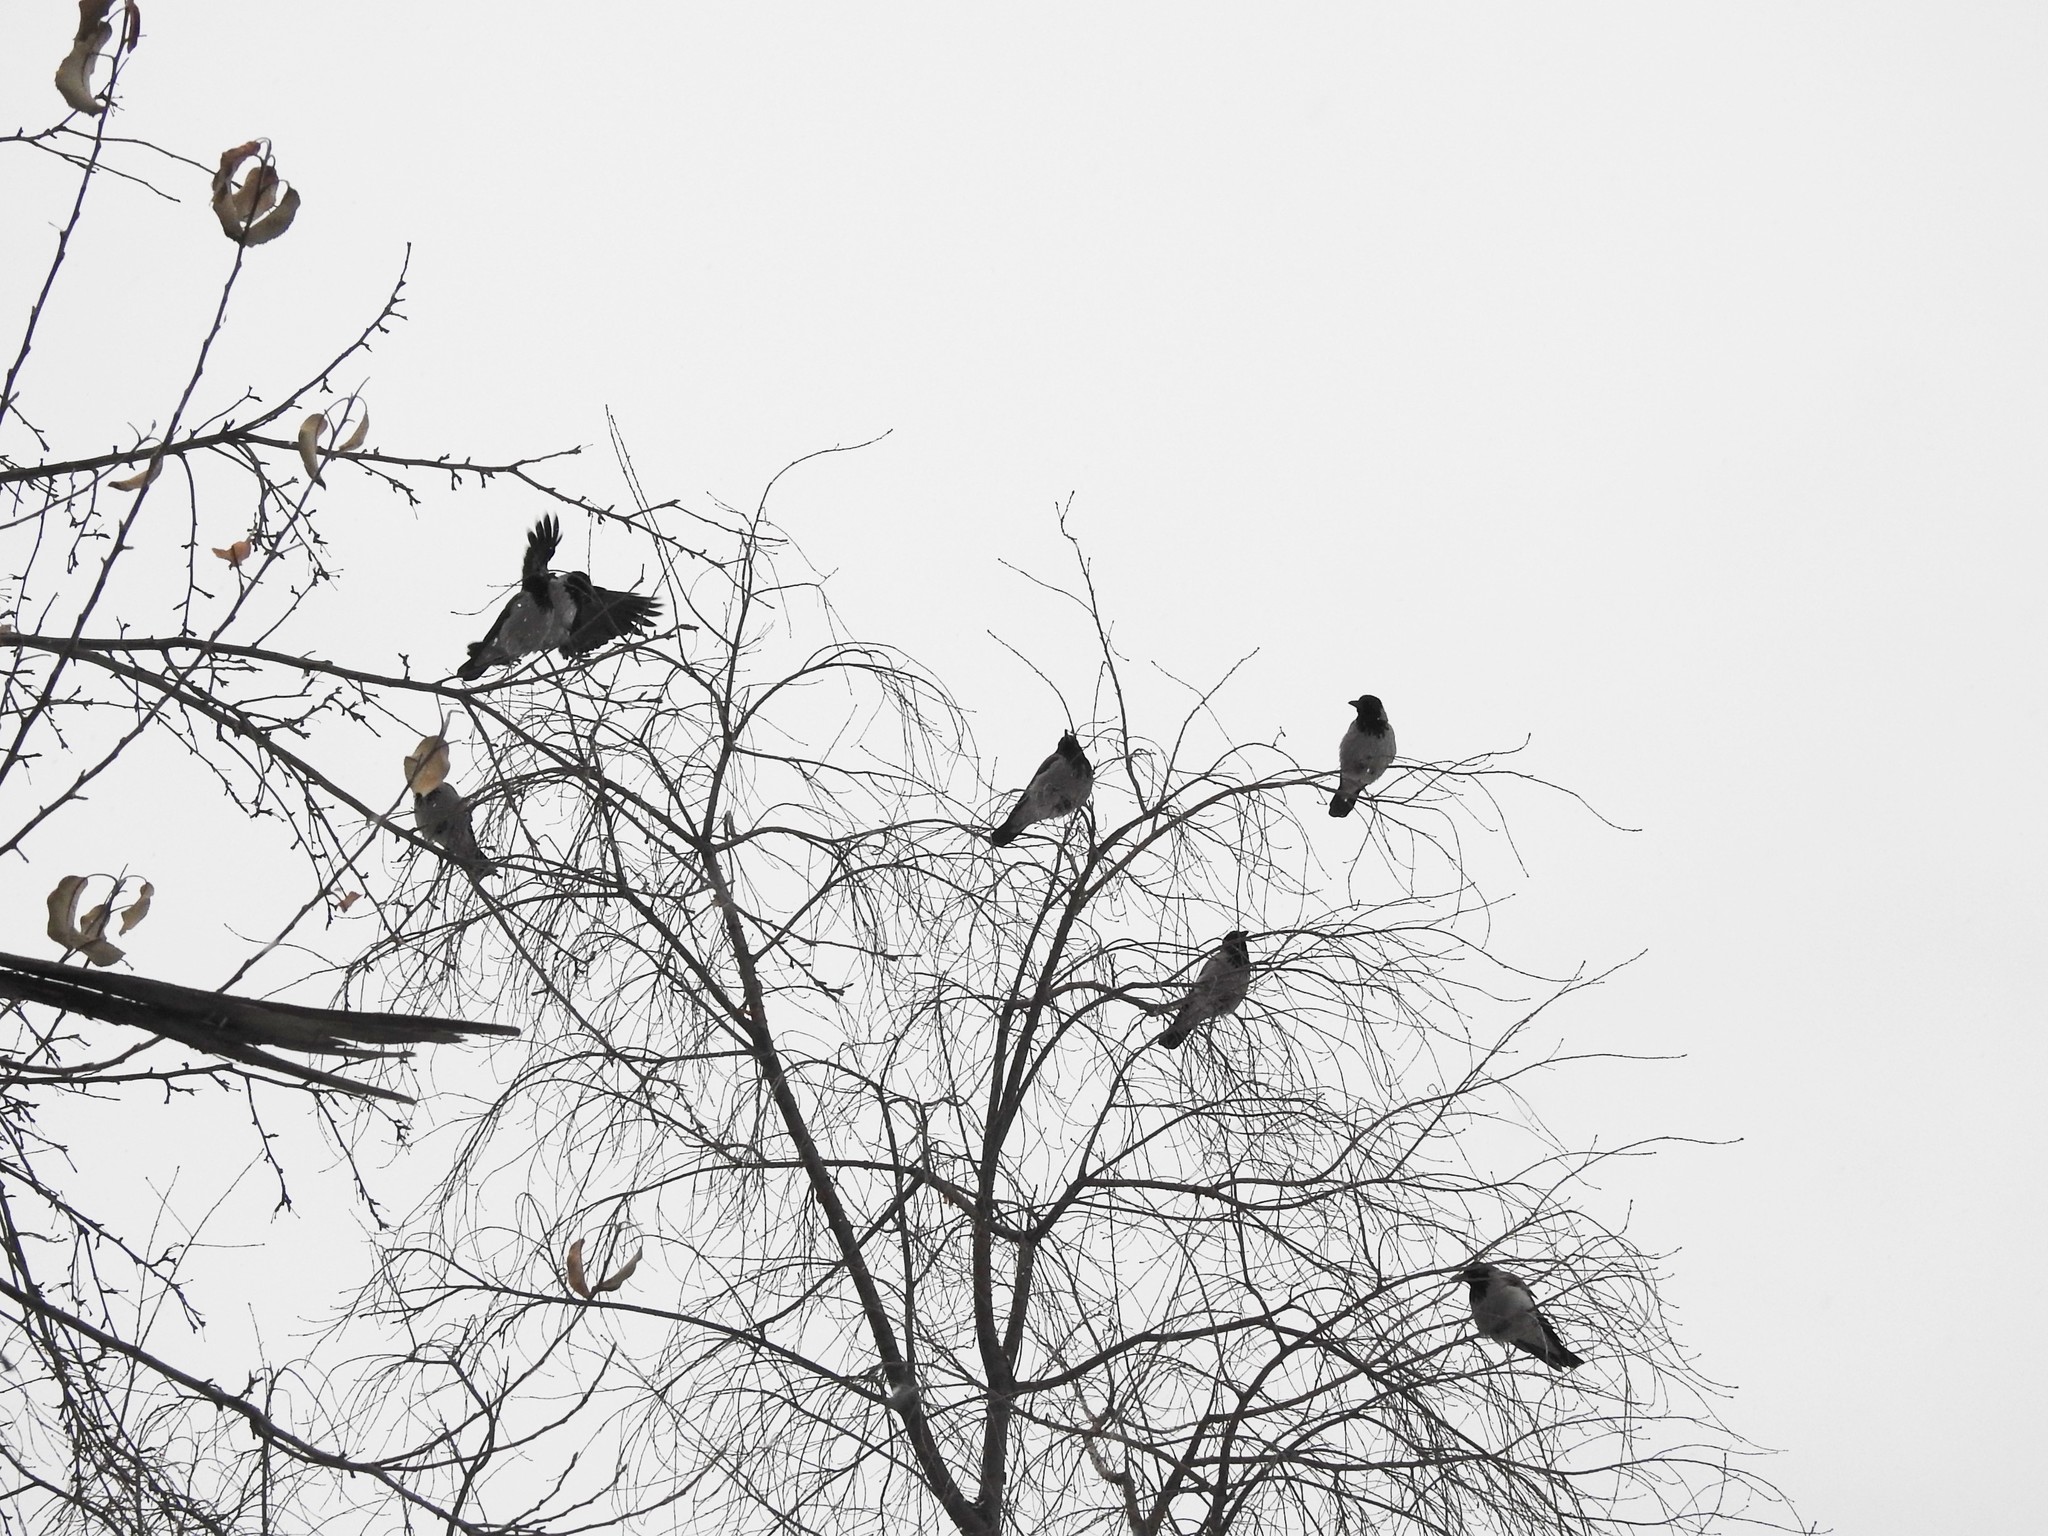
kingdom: Animalia
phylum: Chordata
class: Aves
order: Passeriformes
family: Corvidae
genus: Corvus
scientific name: Corvus cornix
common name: Hooded crow
